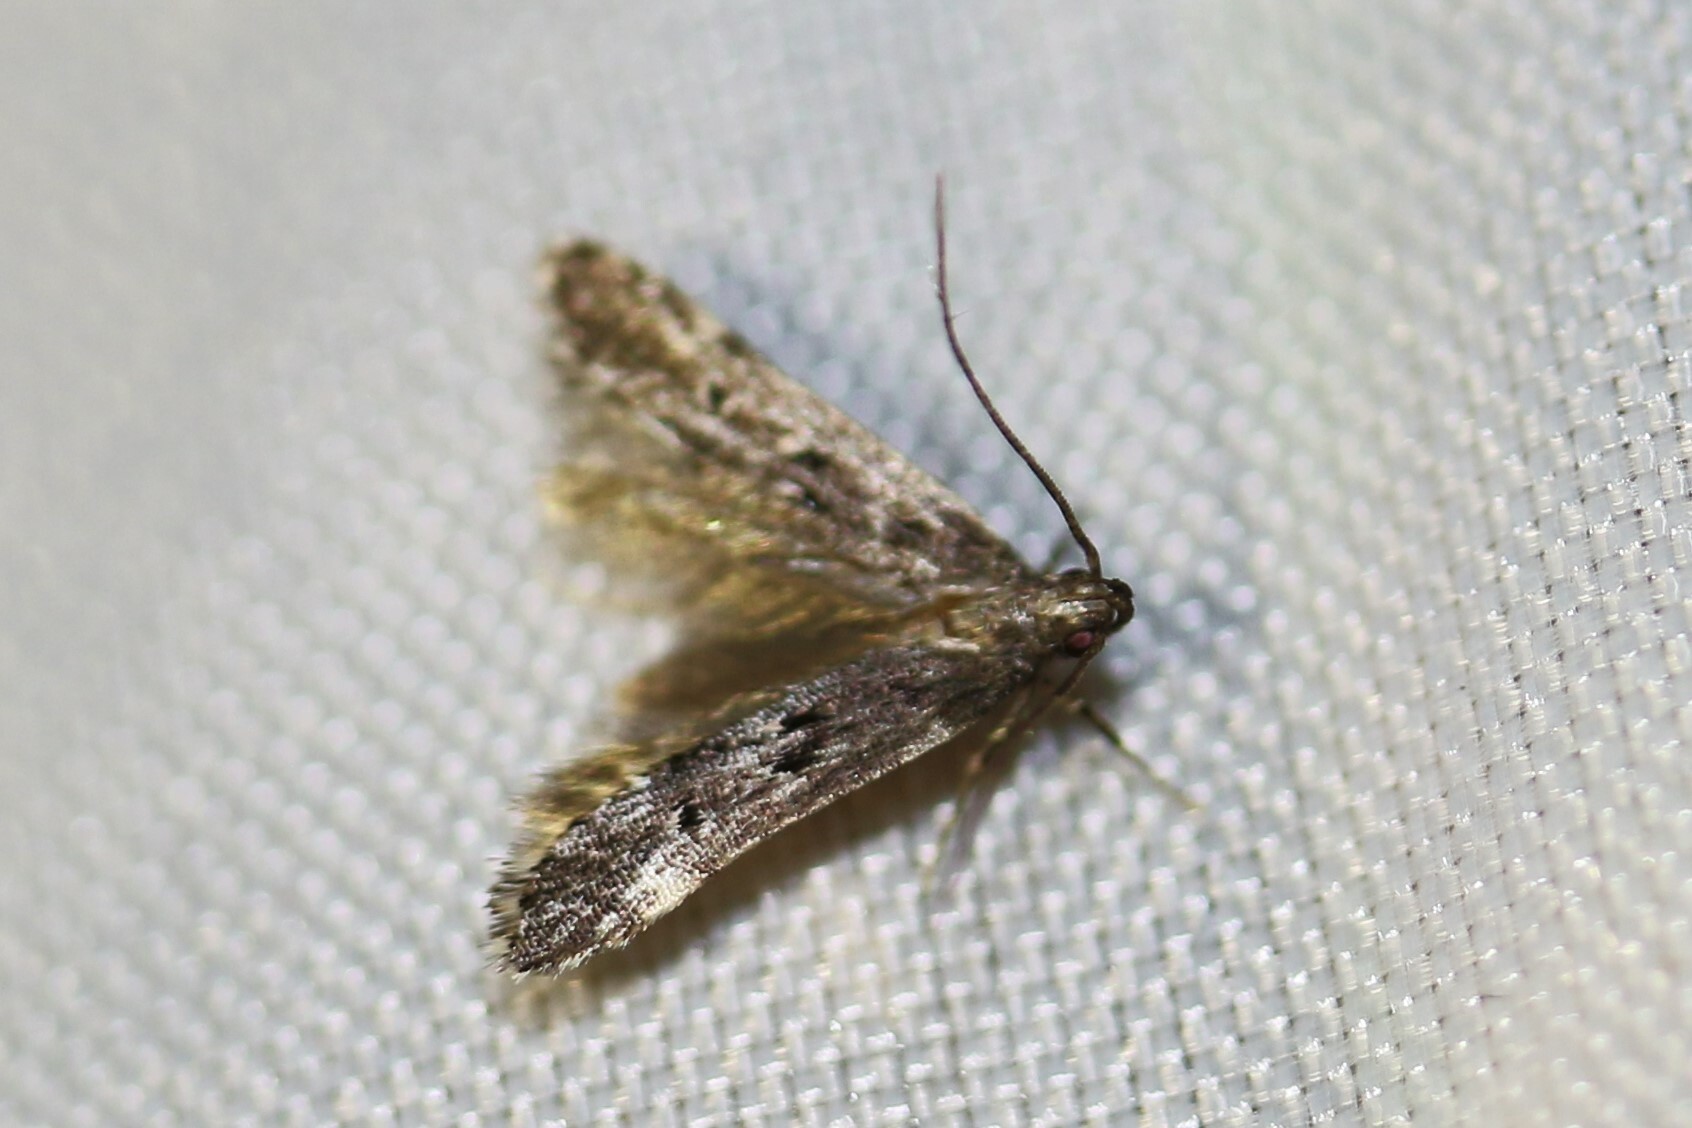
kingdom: Animalia
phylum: Arthropoda
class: Insecta
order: Lepidoptera
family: Gelechiidae
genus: Acanthophila
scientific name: Acanthophila alacella
